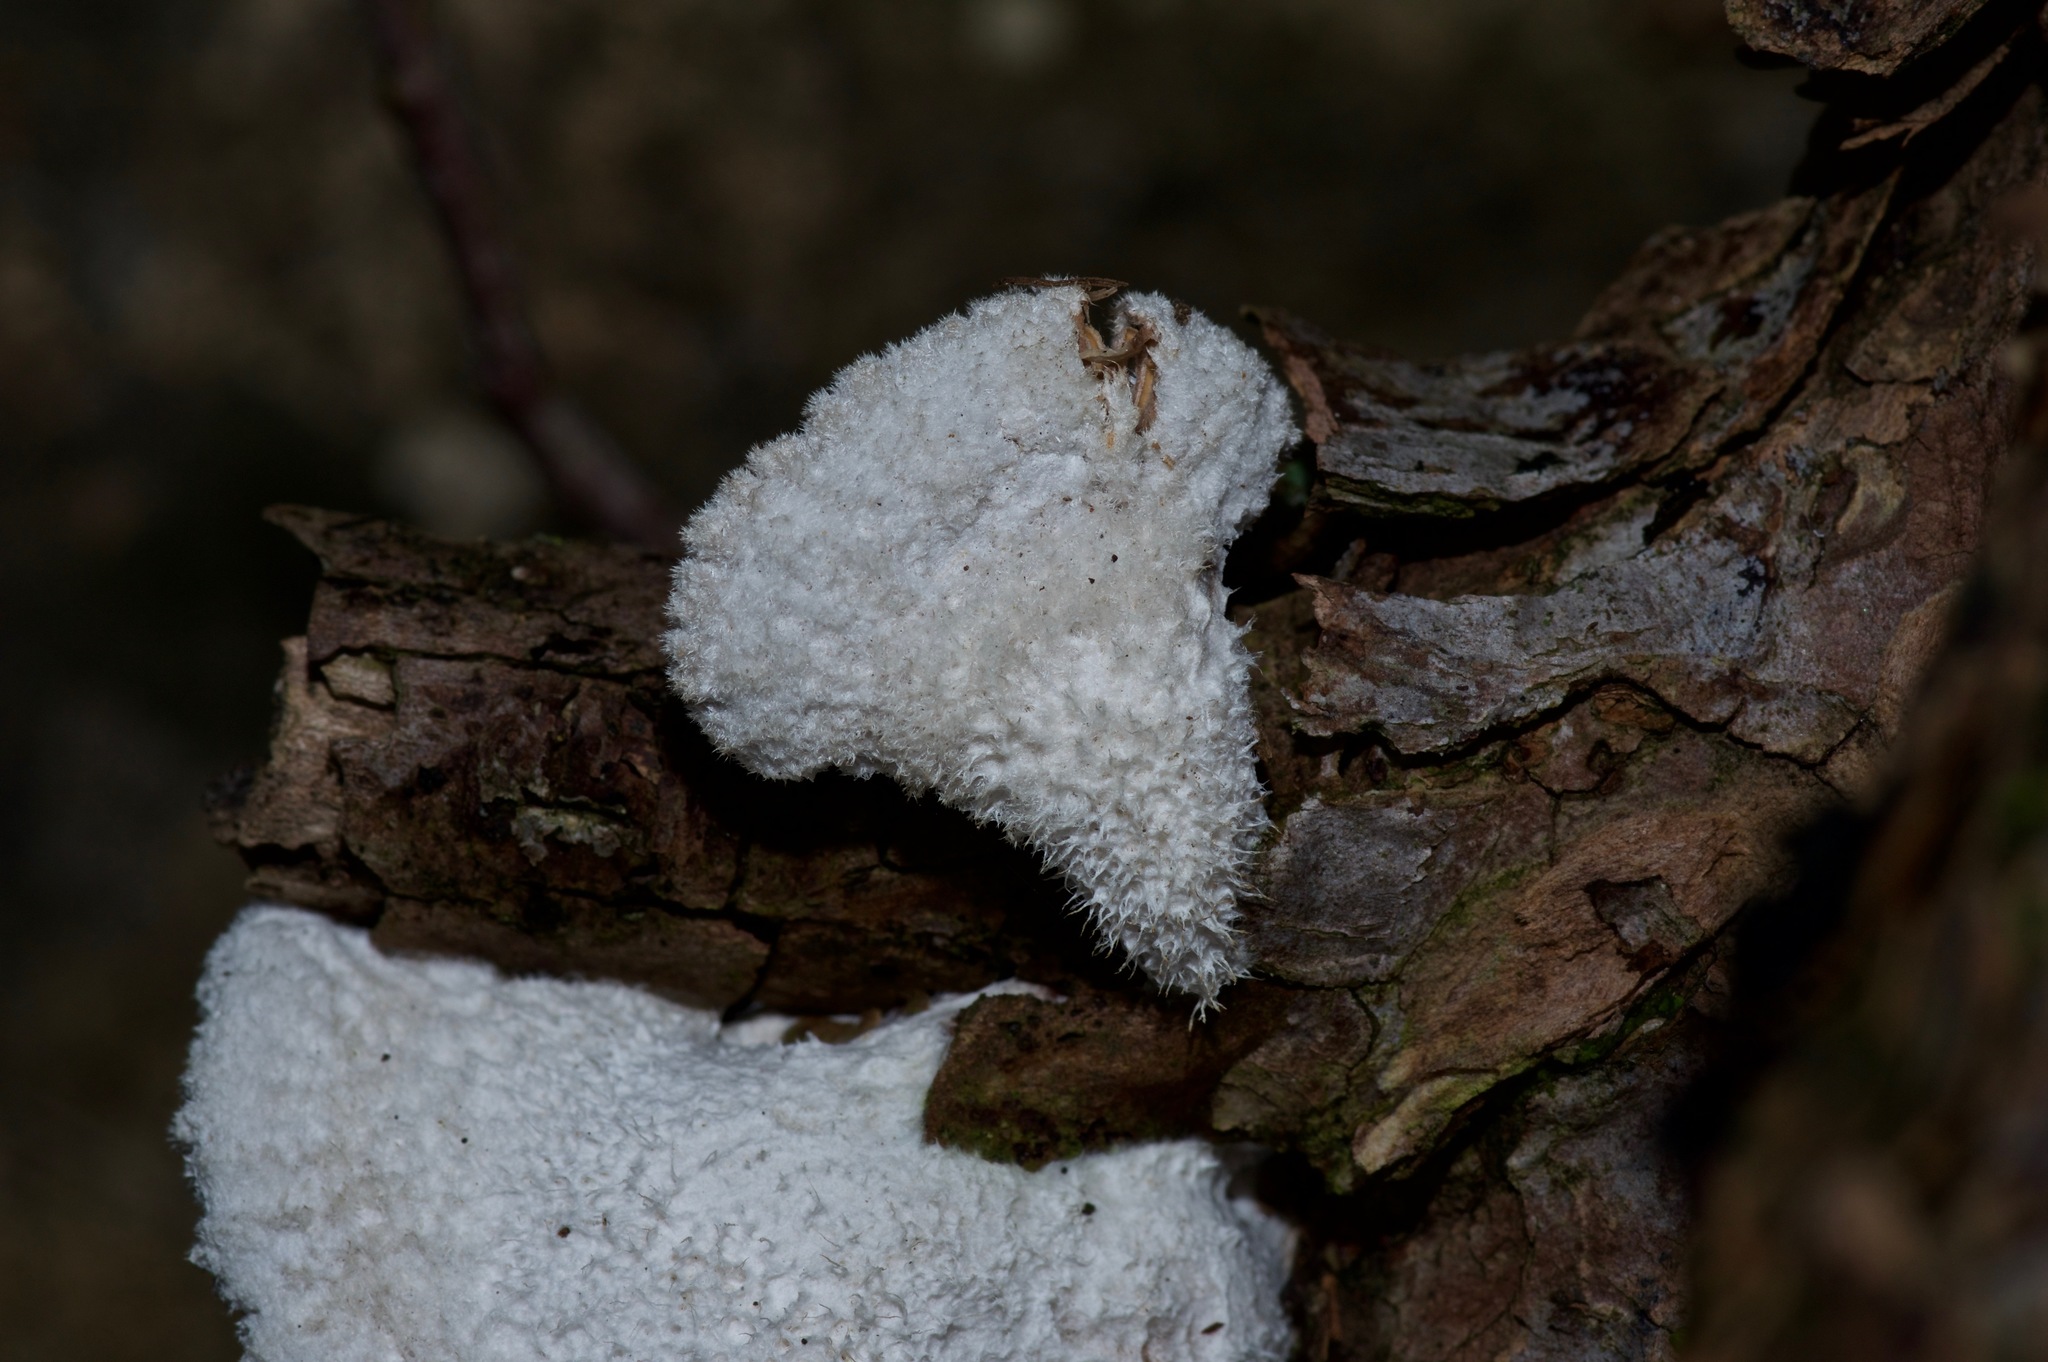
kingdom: Fungi
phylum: Basidiomycota
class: Agaricomycetes
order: Agaricales
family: Schizophyllaceae
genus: Schizophyllum
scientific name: Schizophyllum commune
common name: Common porecrust
